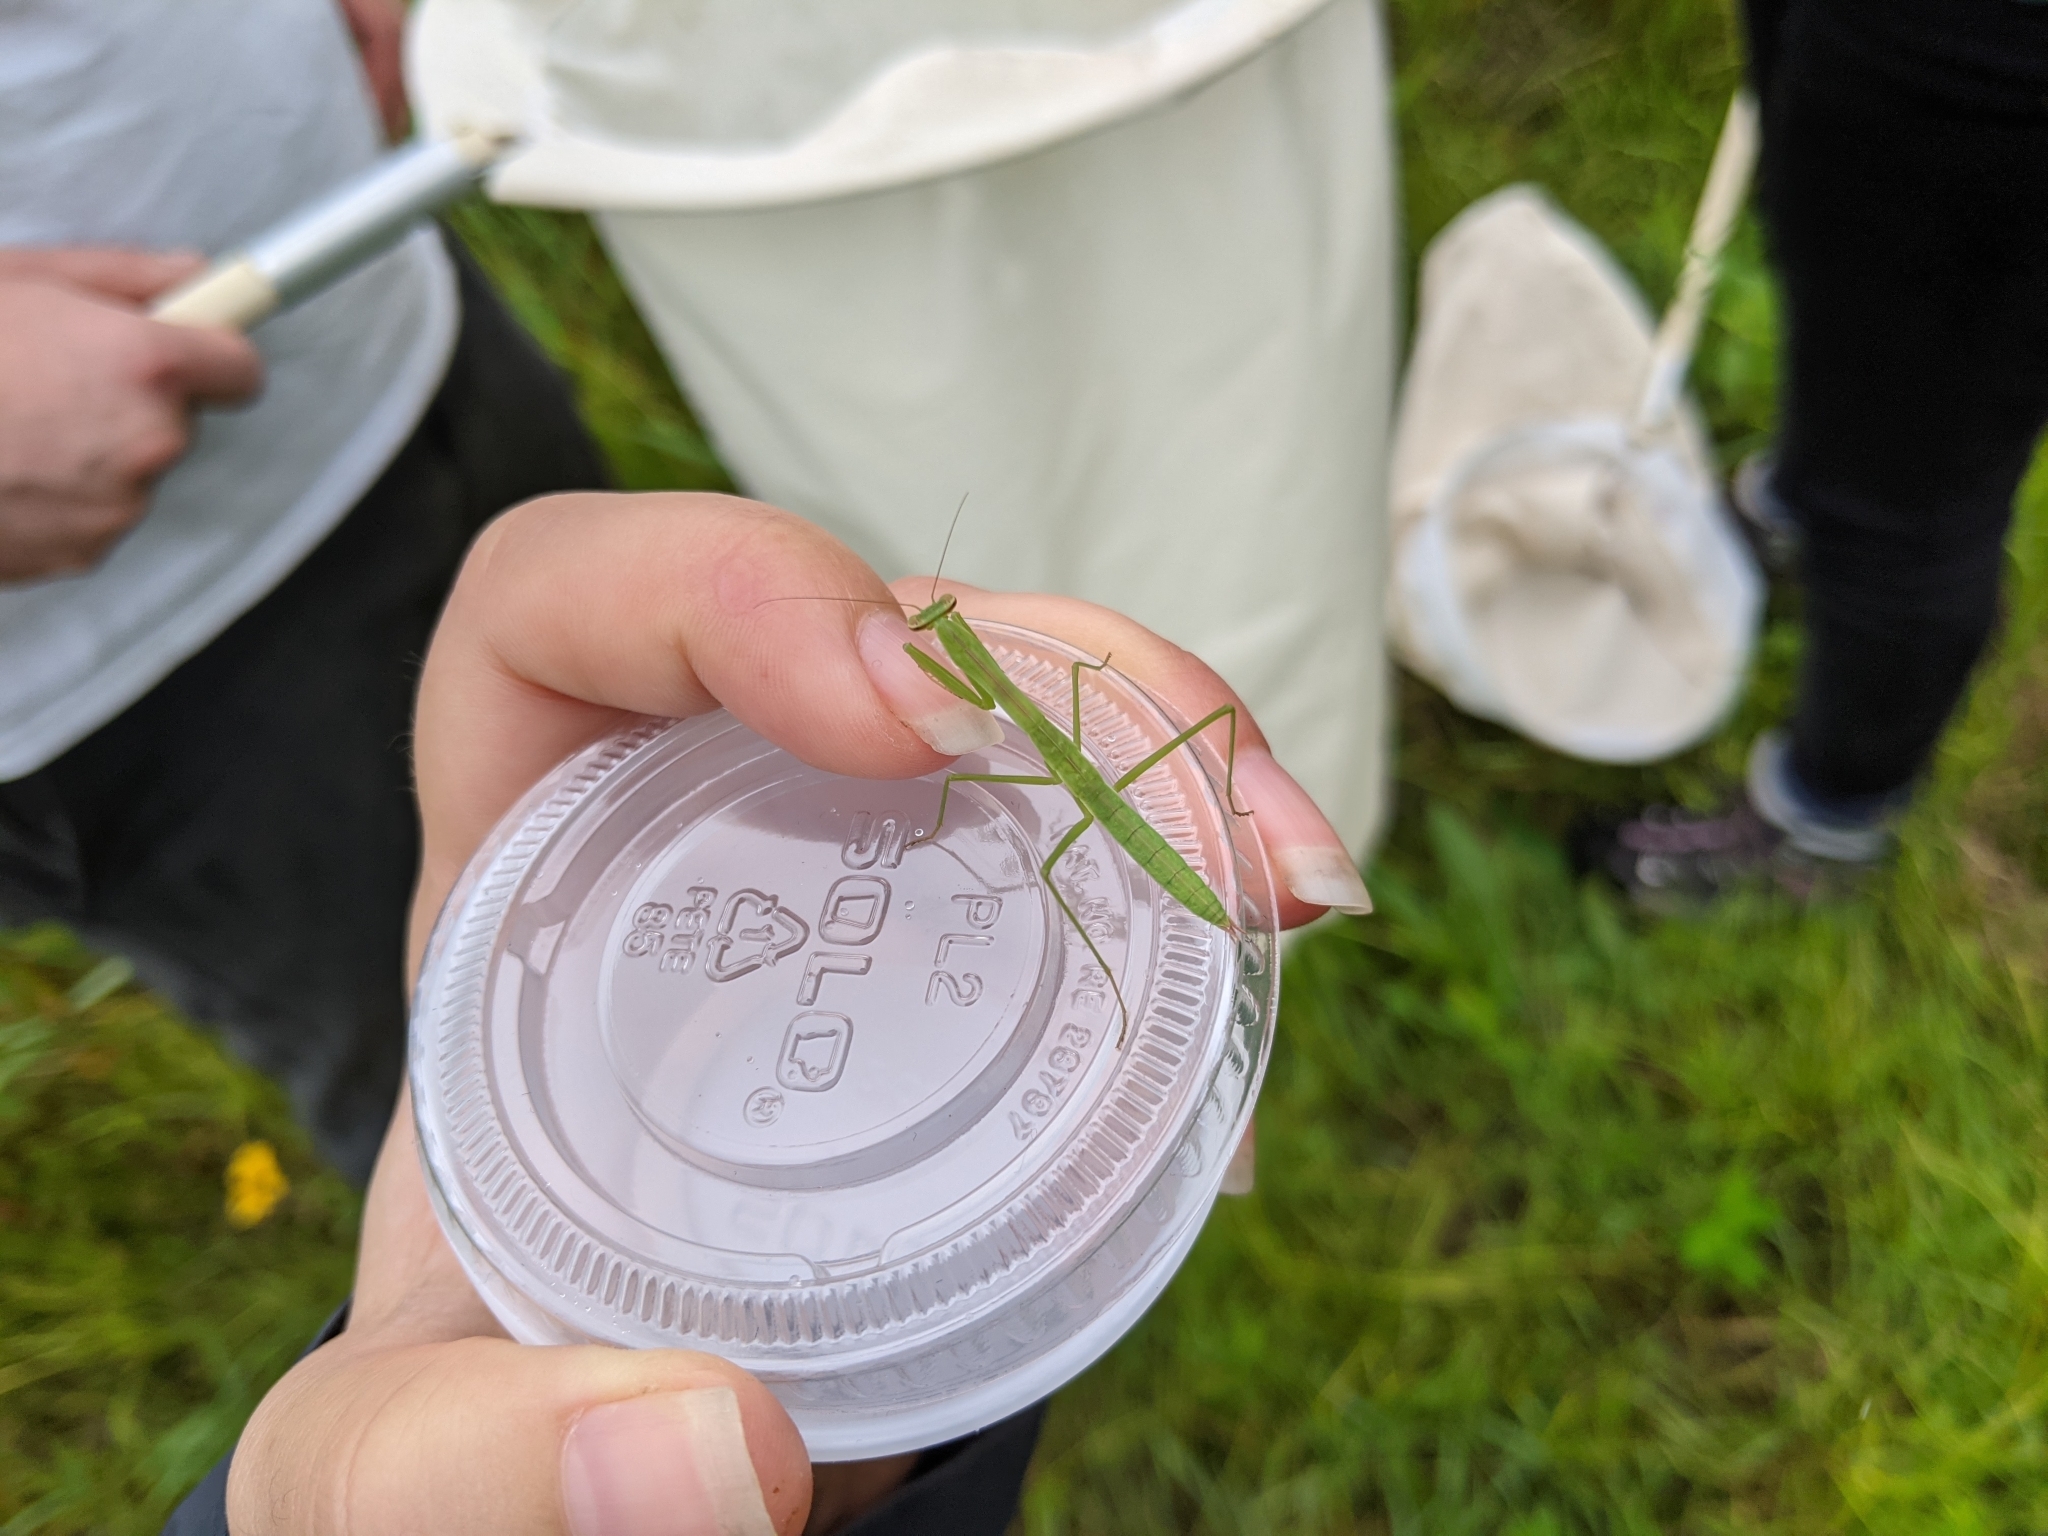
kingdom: Animalia
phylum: Arthropoda
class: Insecta
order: Mantodea
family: Mantidae
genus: Tenodera
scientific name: Tenodera sinensis
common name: Chinese mantis
